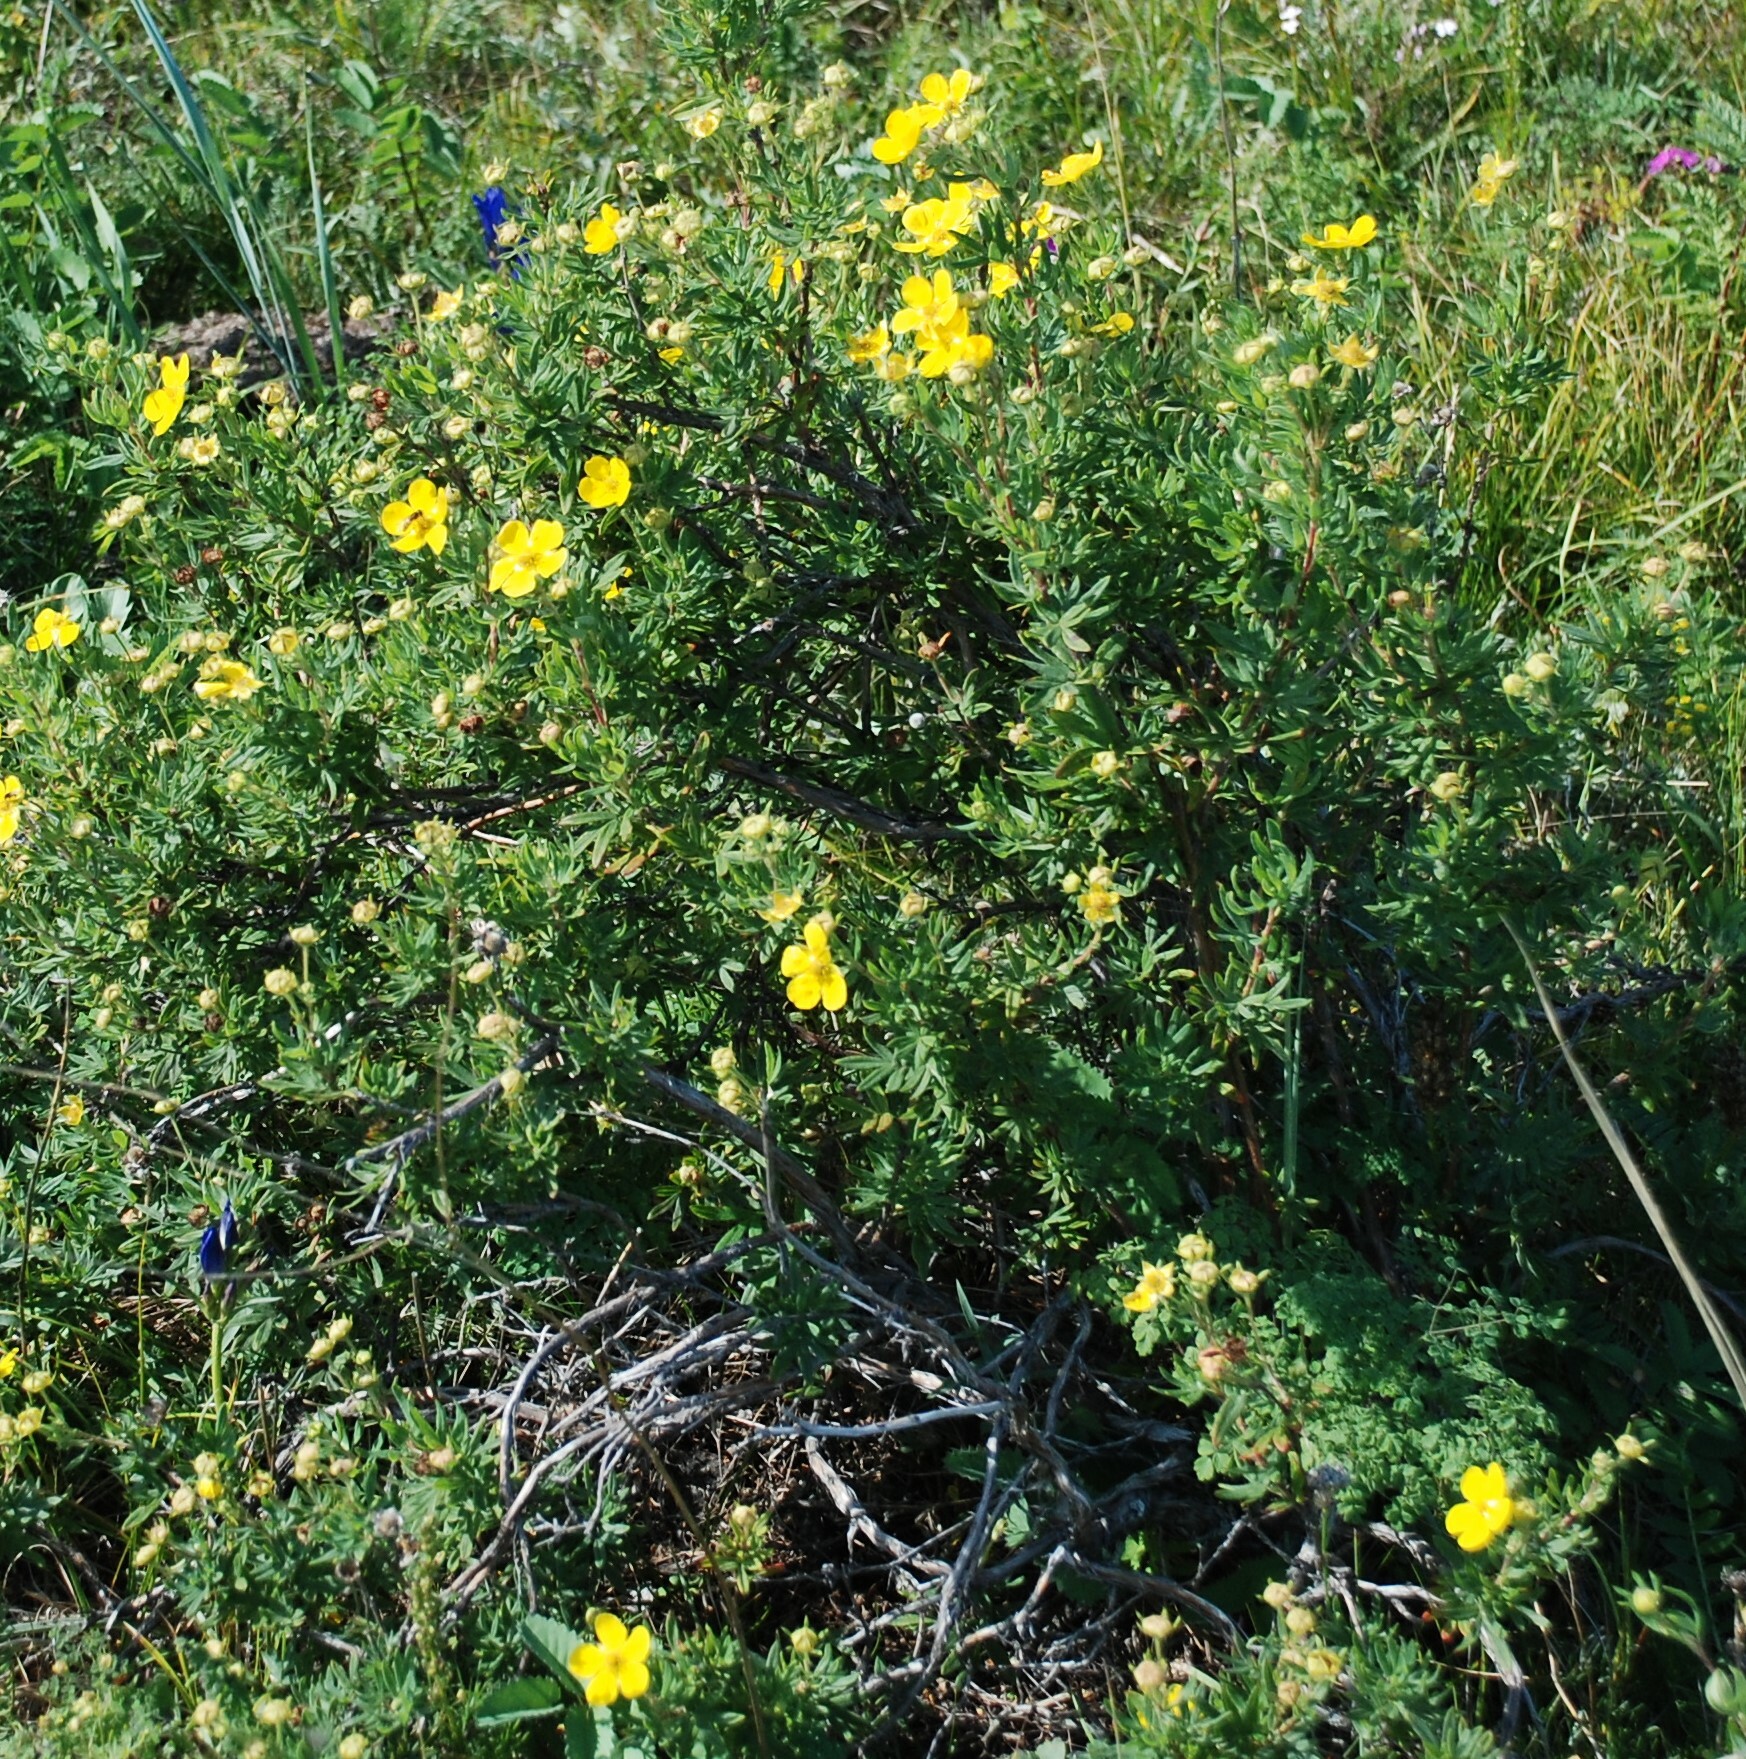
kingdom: Plantae
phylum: Tracheophyta
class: Magnoliopsida
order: Rosales
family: Rosaceae
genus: Dasiphora
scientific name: Dasiphora fruticosa
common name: Shrubby cinquefoil
